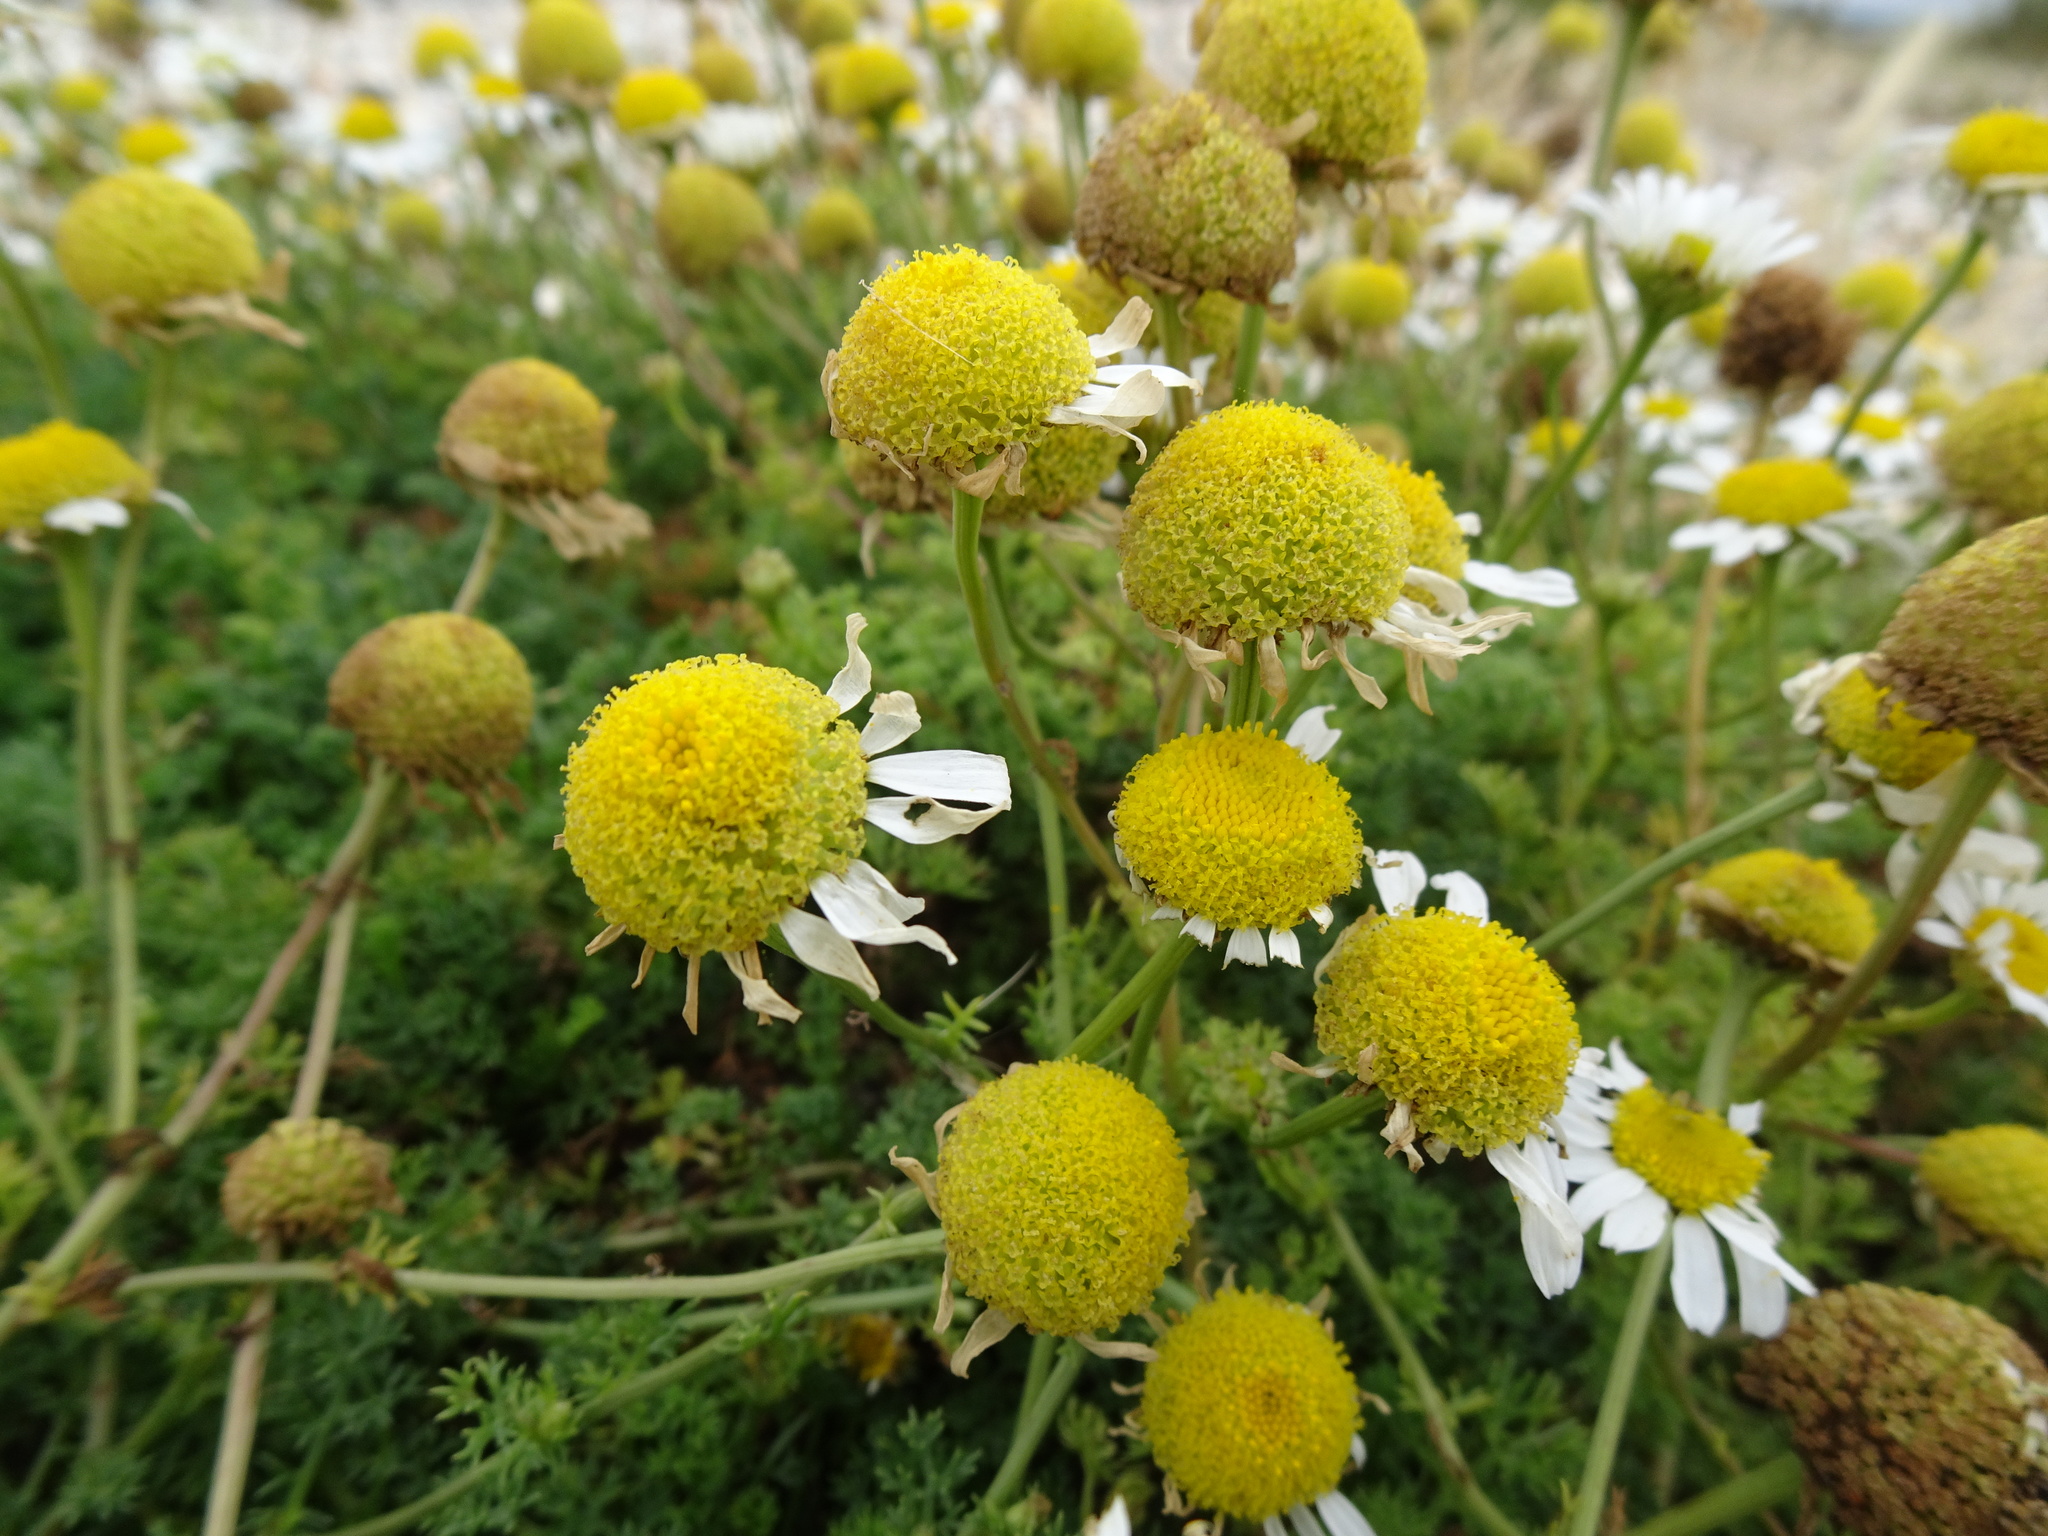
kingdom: Plantae
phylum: Tracheophyta
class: Magnoliopsida
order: Asterales
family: Asteraceae
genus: Tripleurospermum
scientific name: Tripleurospermum maritimum
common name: Sea mayweed
